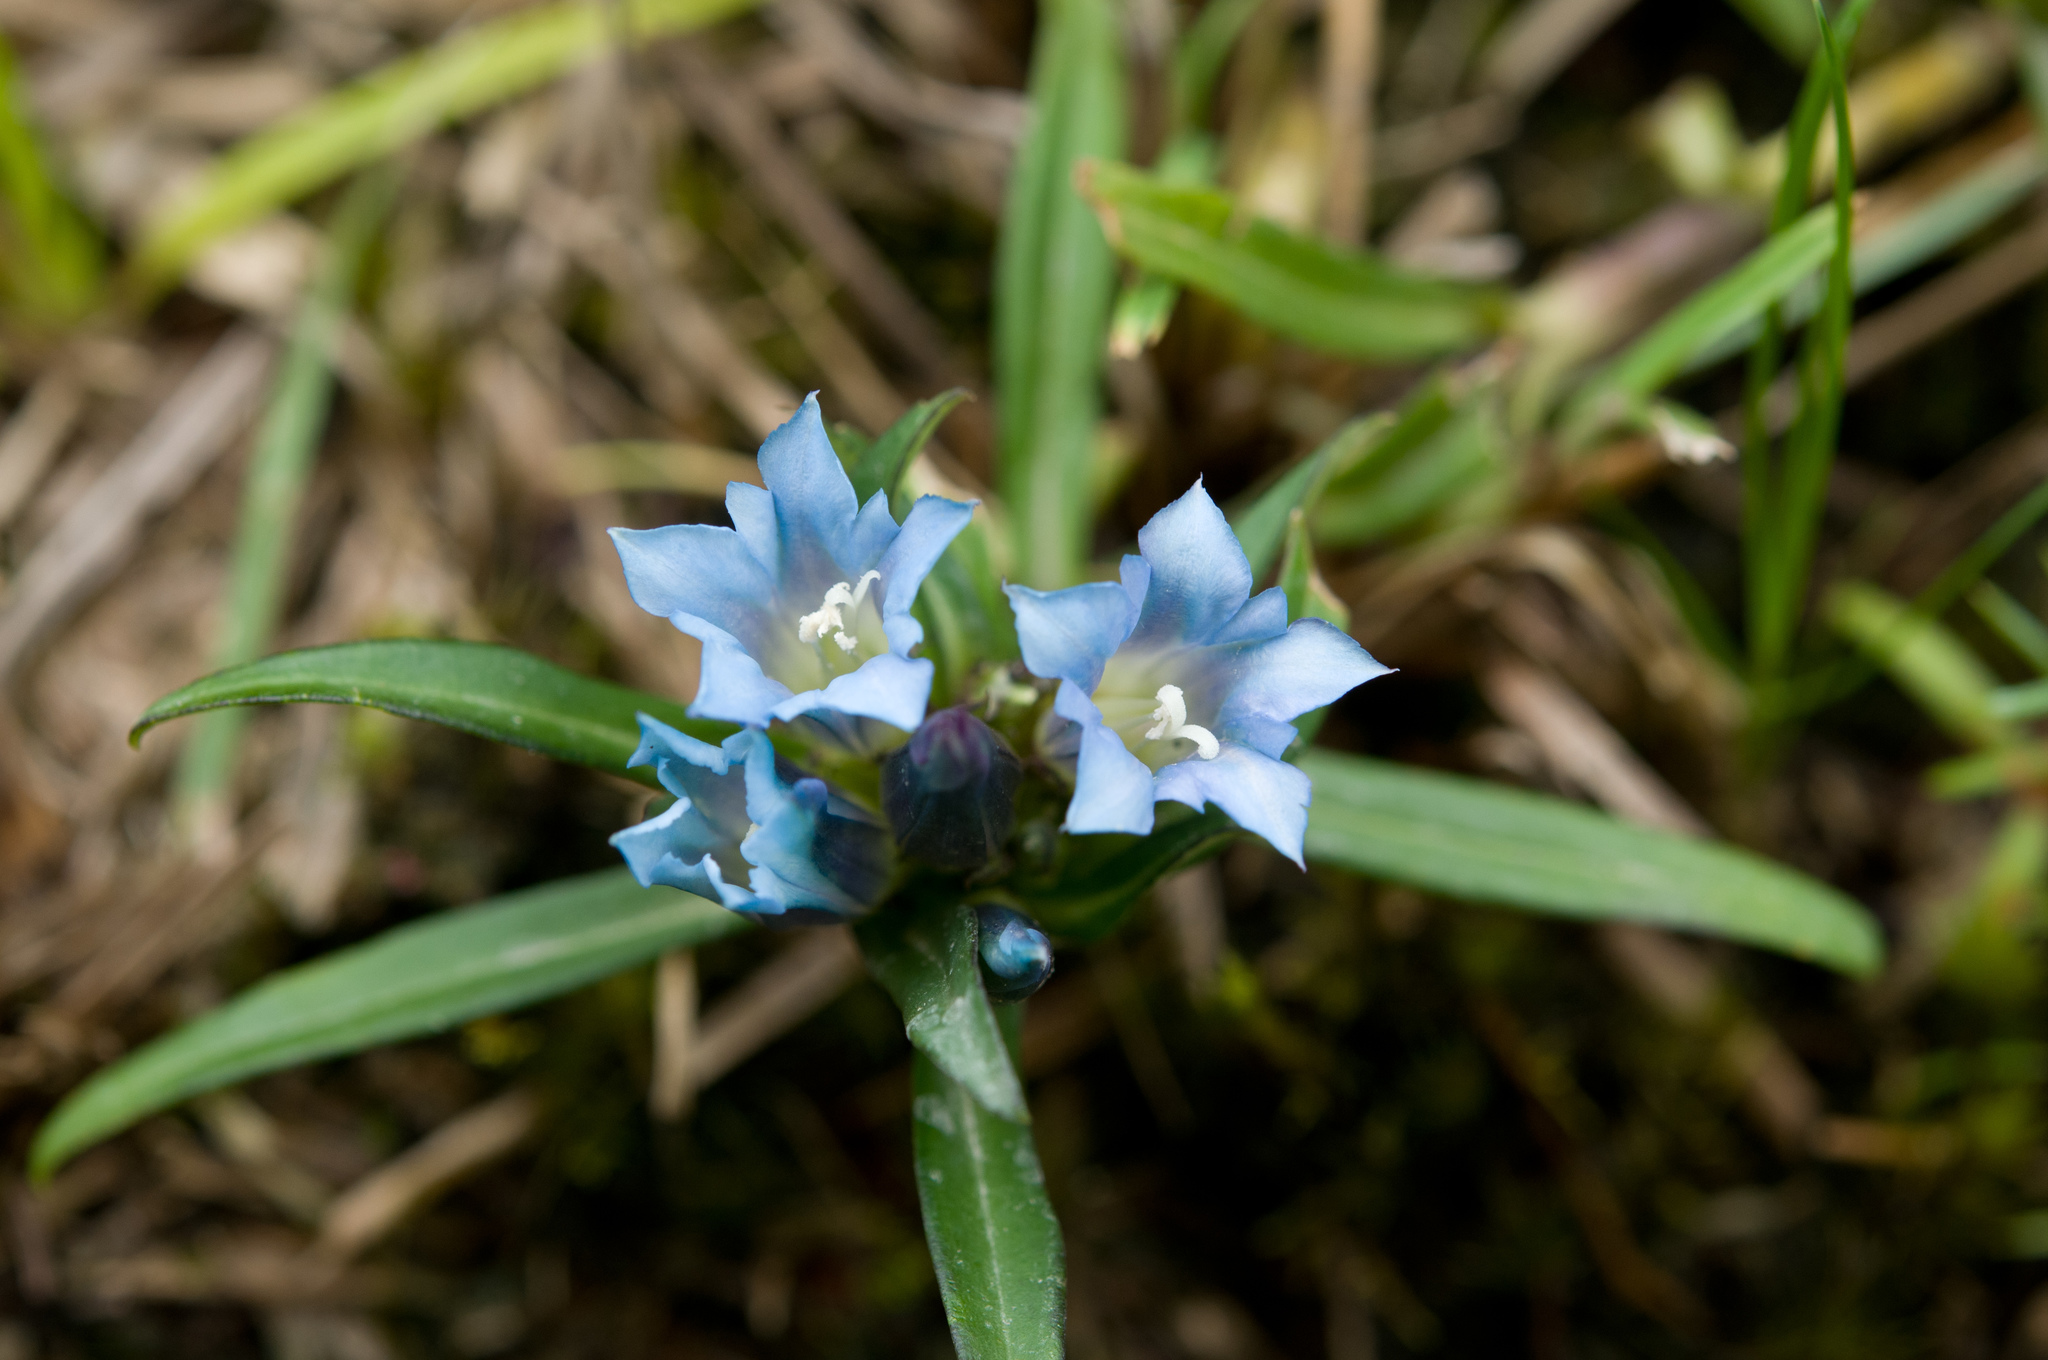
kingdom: Plantae
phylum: Tracheophyta
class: Magnoliopsida
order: Gentianales
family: Gentianaceae
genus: Gentiana
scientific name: Gentiana davidii
